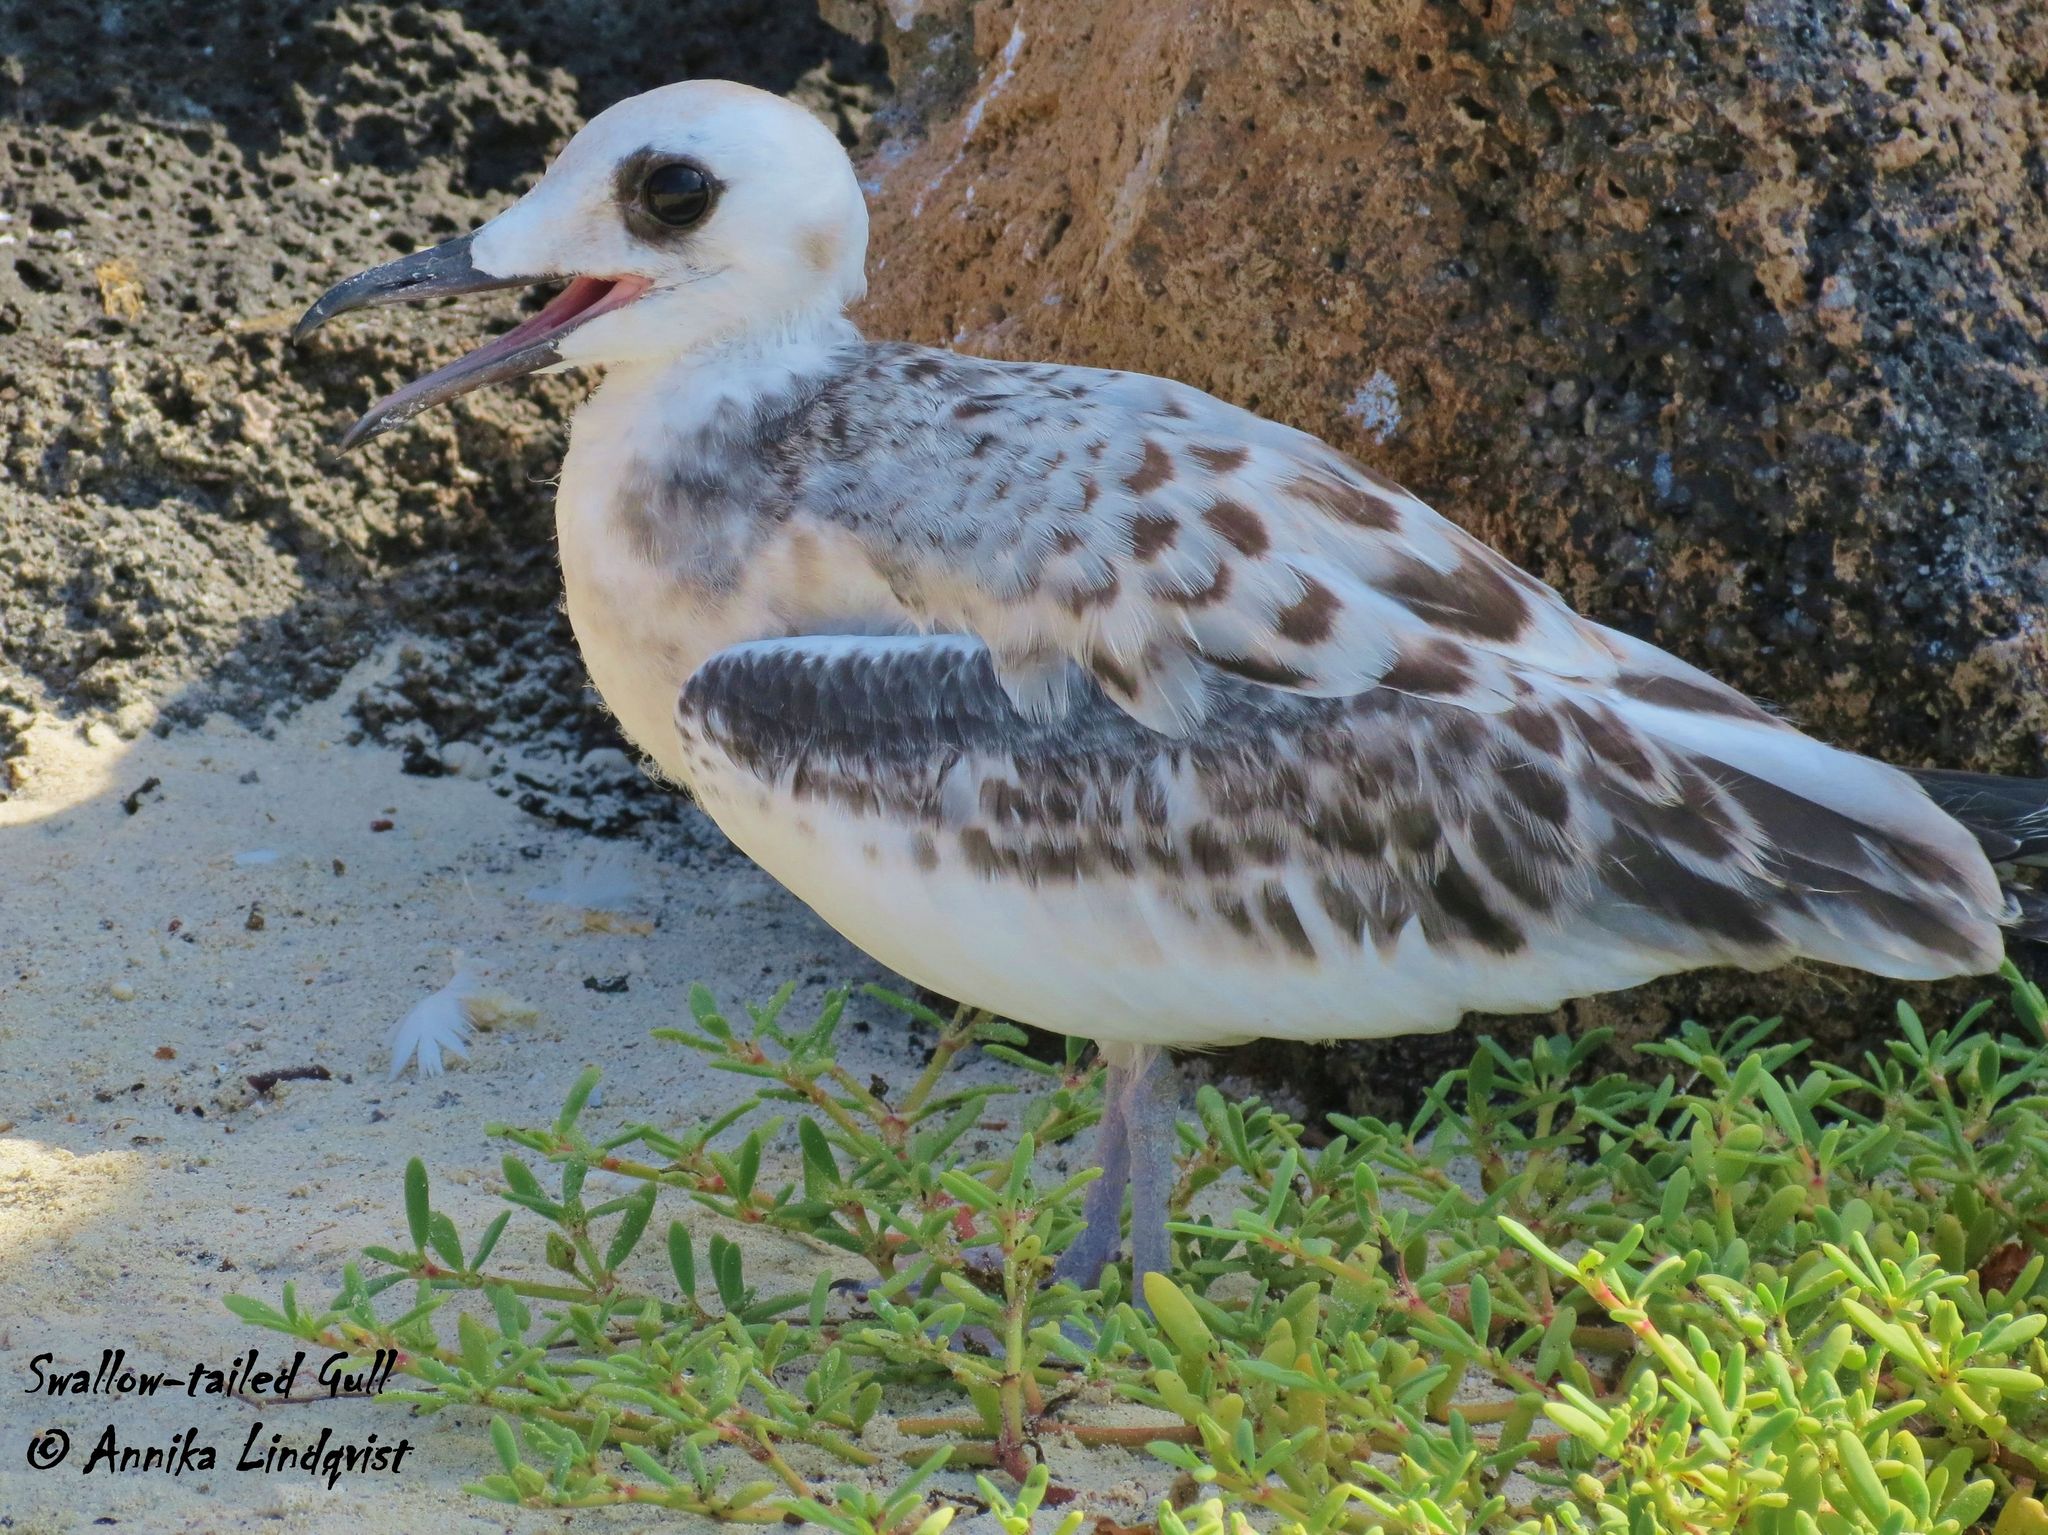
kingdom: Animalia
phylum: Chordata
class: Aves
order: Charadriiformes
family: Laridae
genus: Creagrus
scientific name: Creagrus furcatus
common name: Swallow-tailed gull
